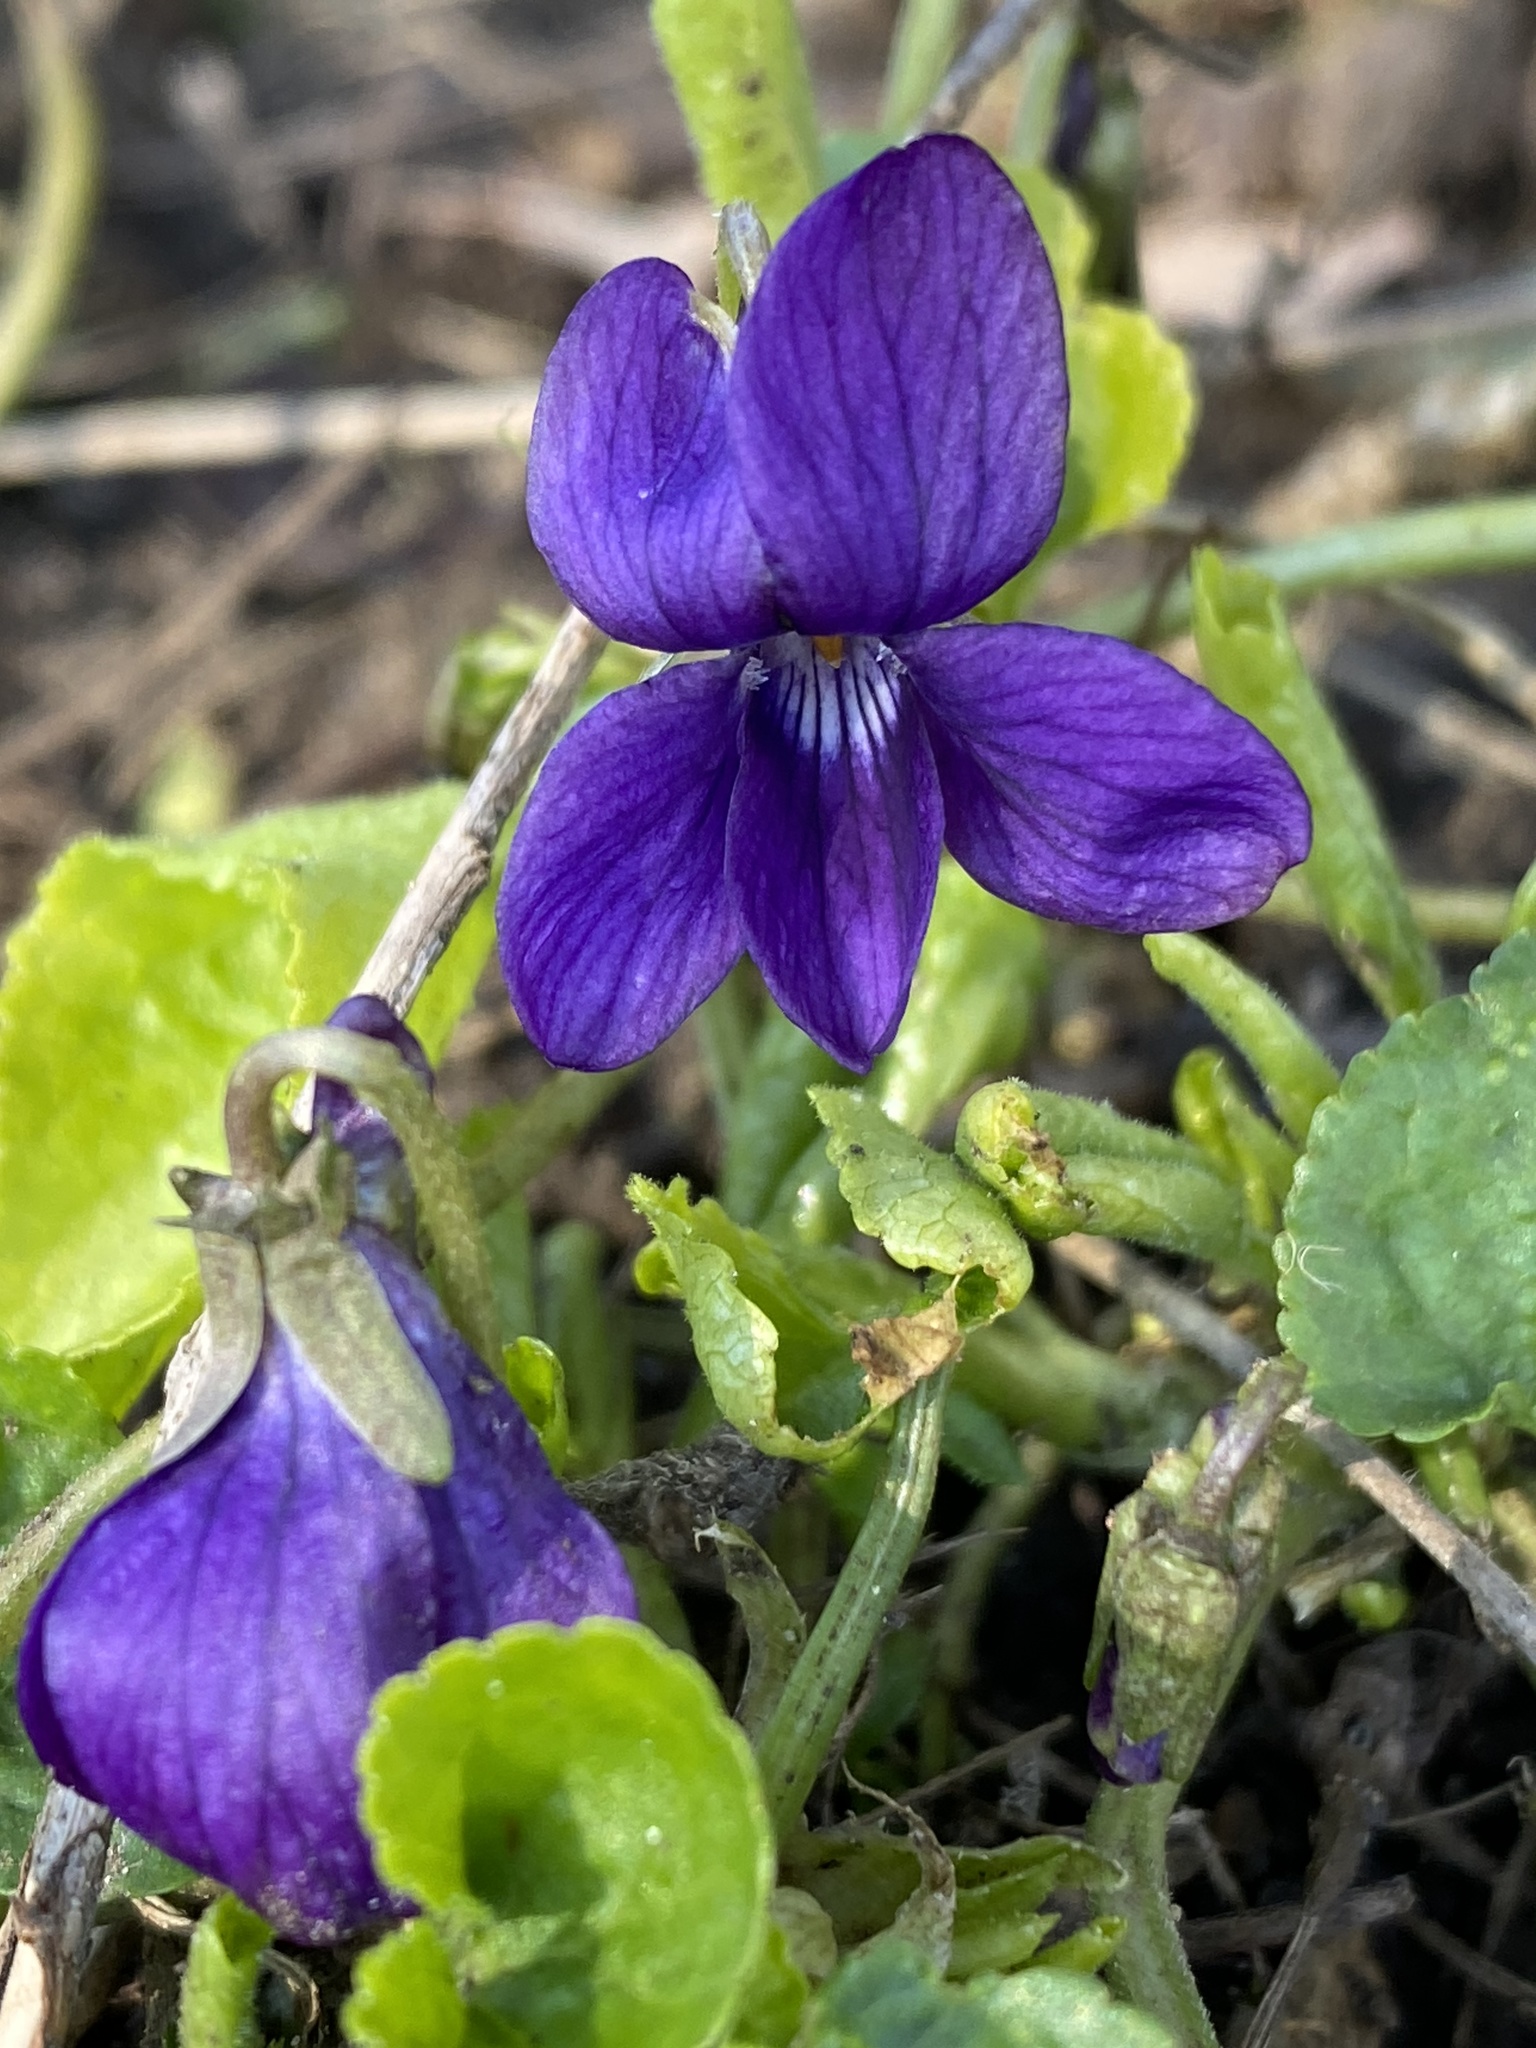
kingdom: Plantae
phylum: Tracheophyta
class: Magnoliopsida
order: Malpighiales
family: Violaceae
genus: Viola
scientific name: Viola odorata
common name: Sweet violet
